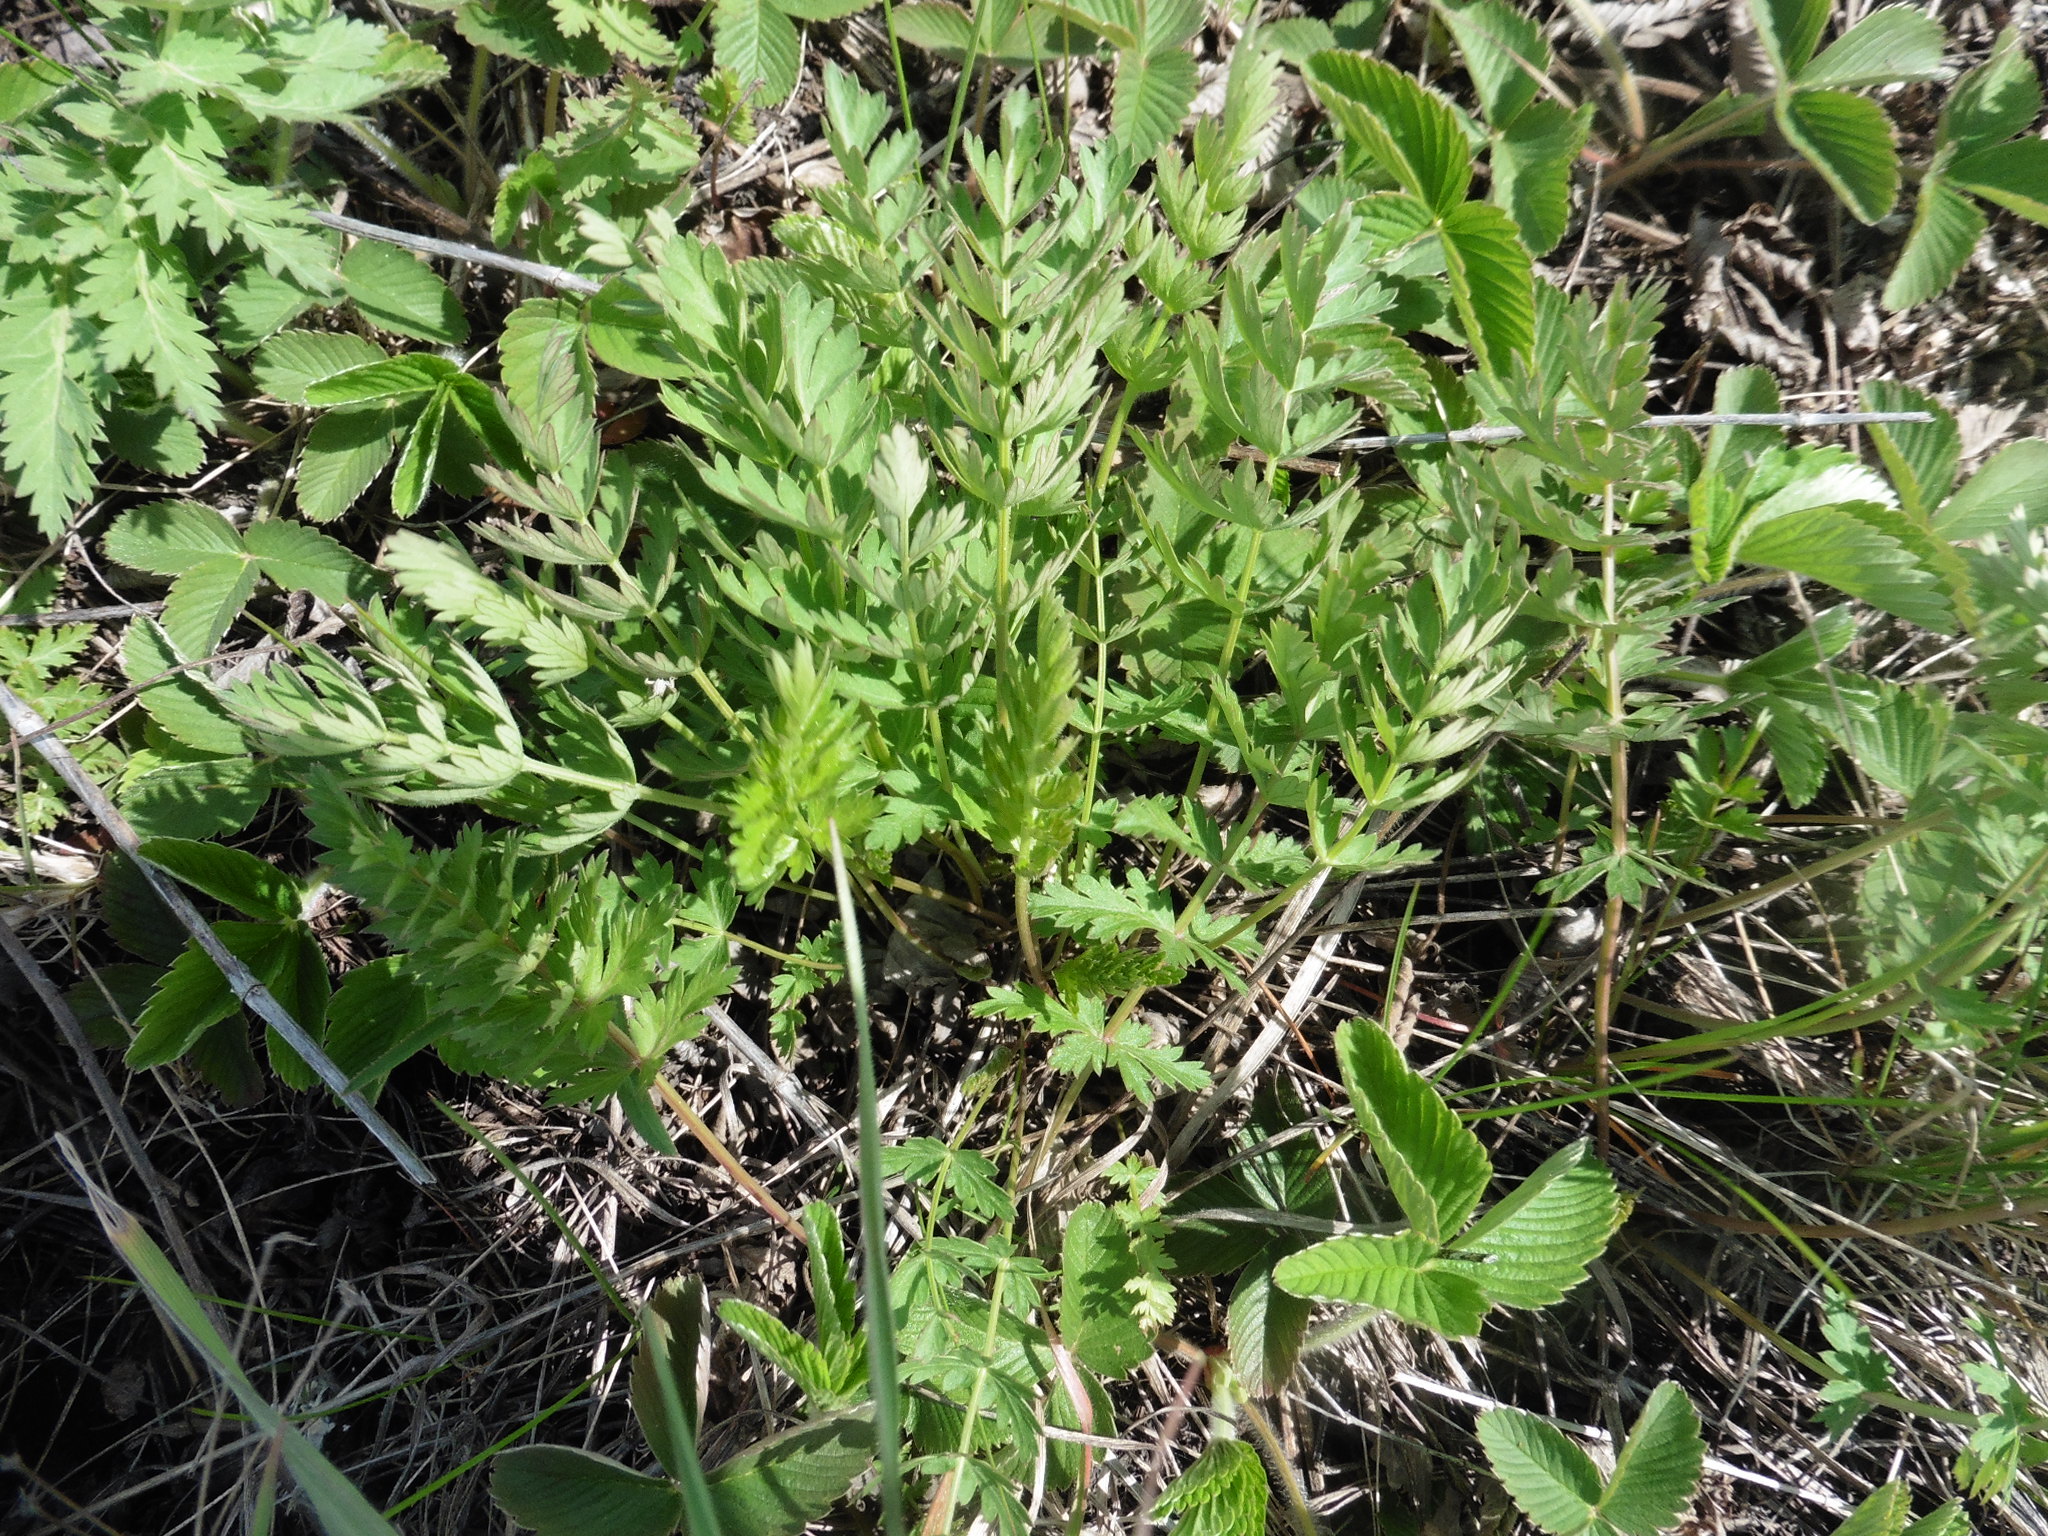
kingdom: Plantae
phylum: Tracheophyta
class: Magnoliopsida
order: Apiales
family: Apiaceae
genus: Seseli
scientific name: Seseli libanotis
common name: Mooncarrot
